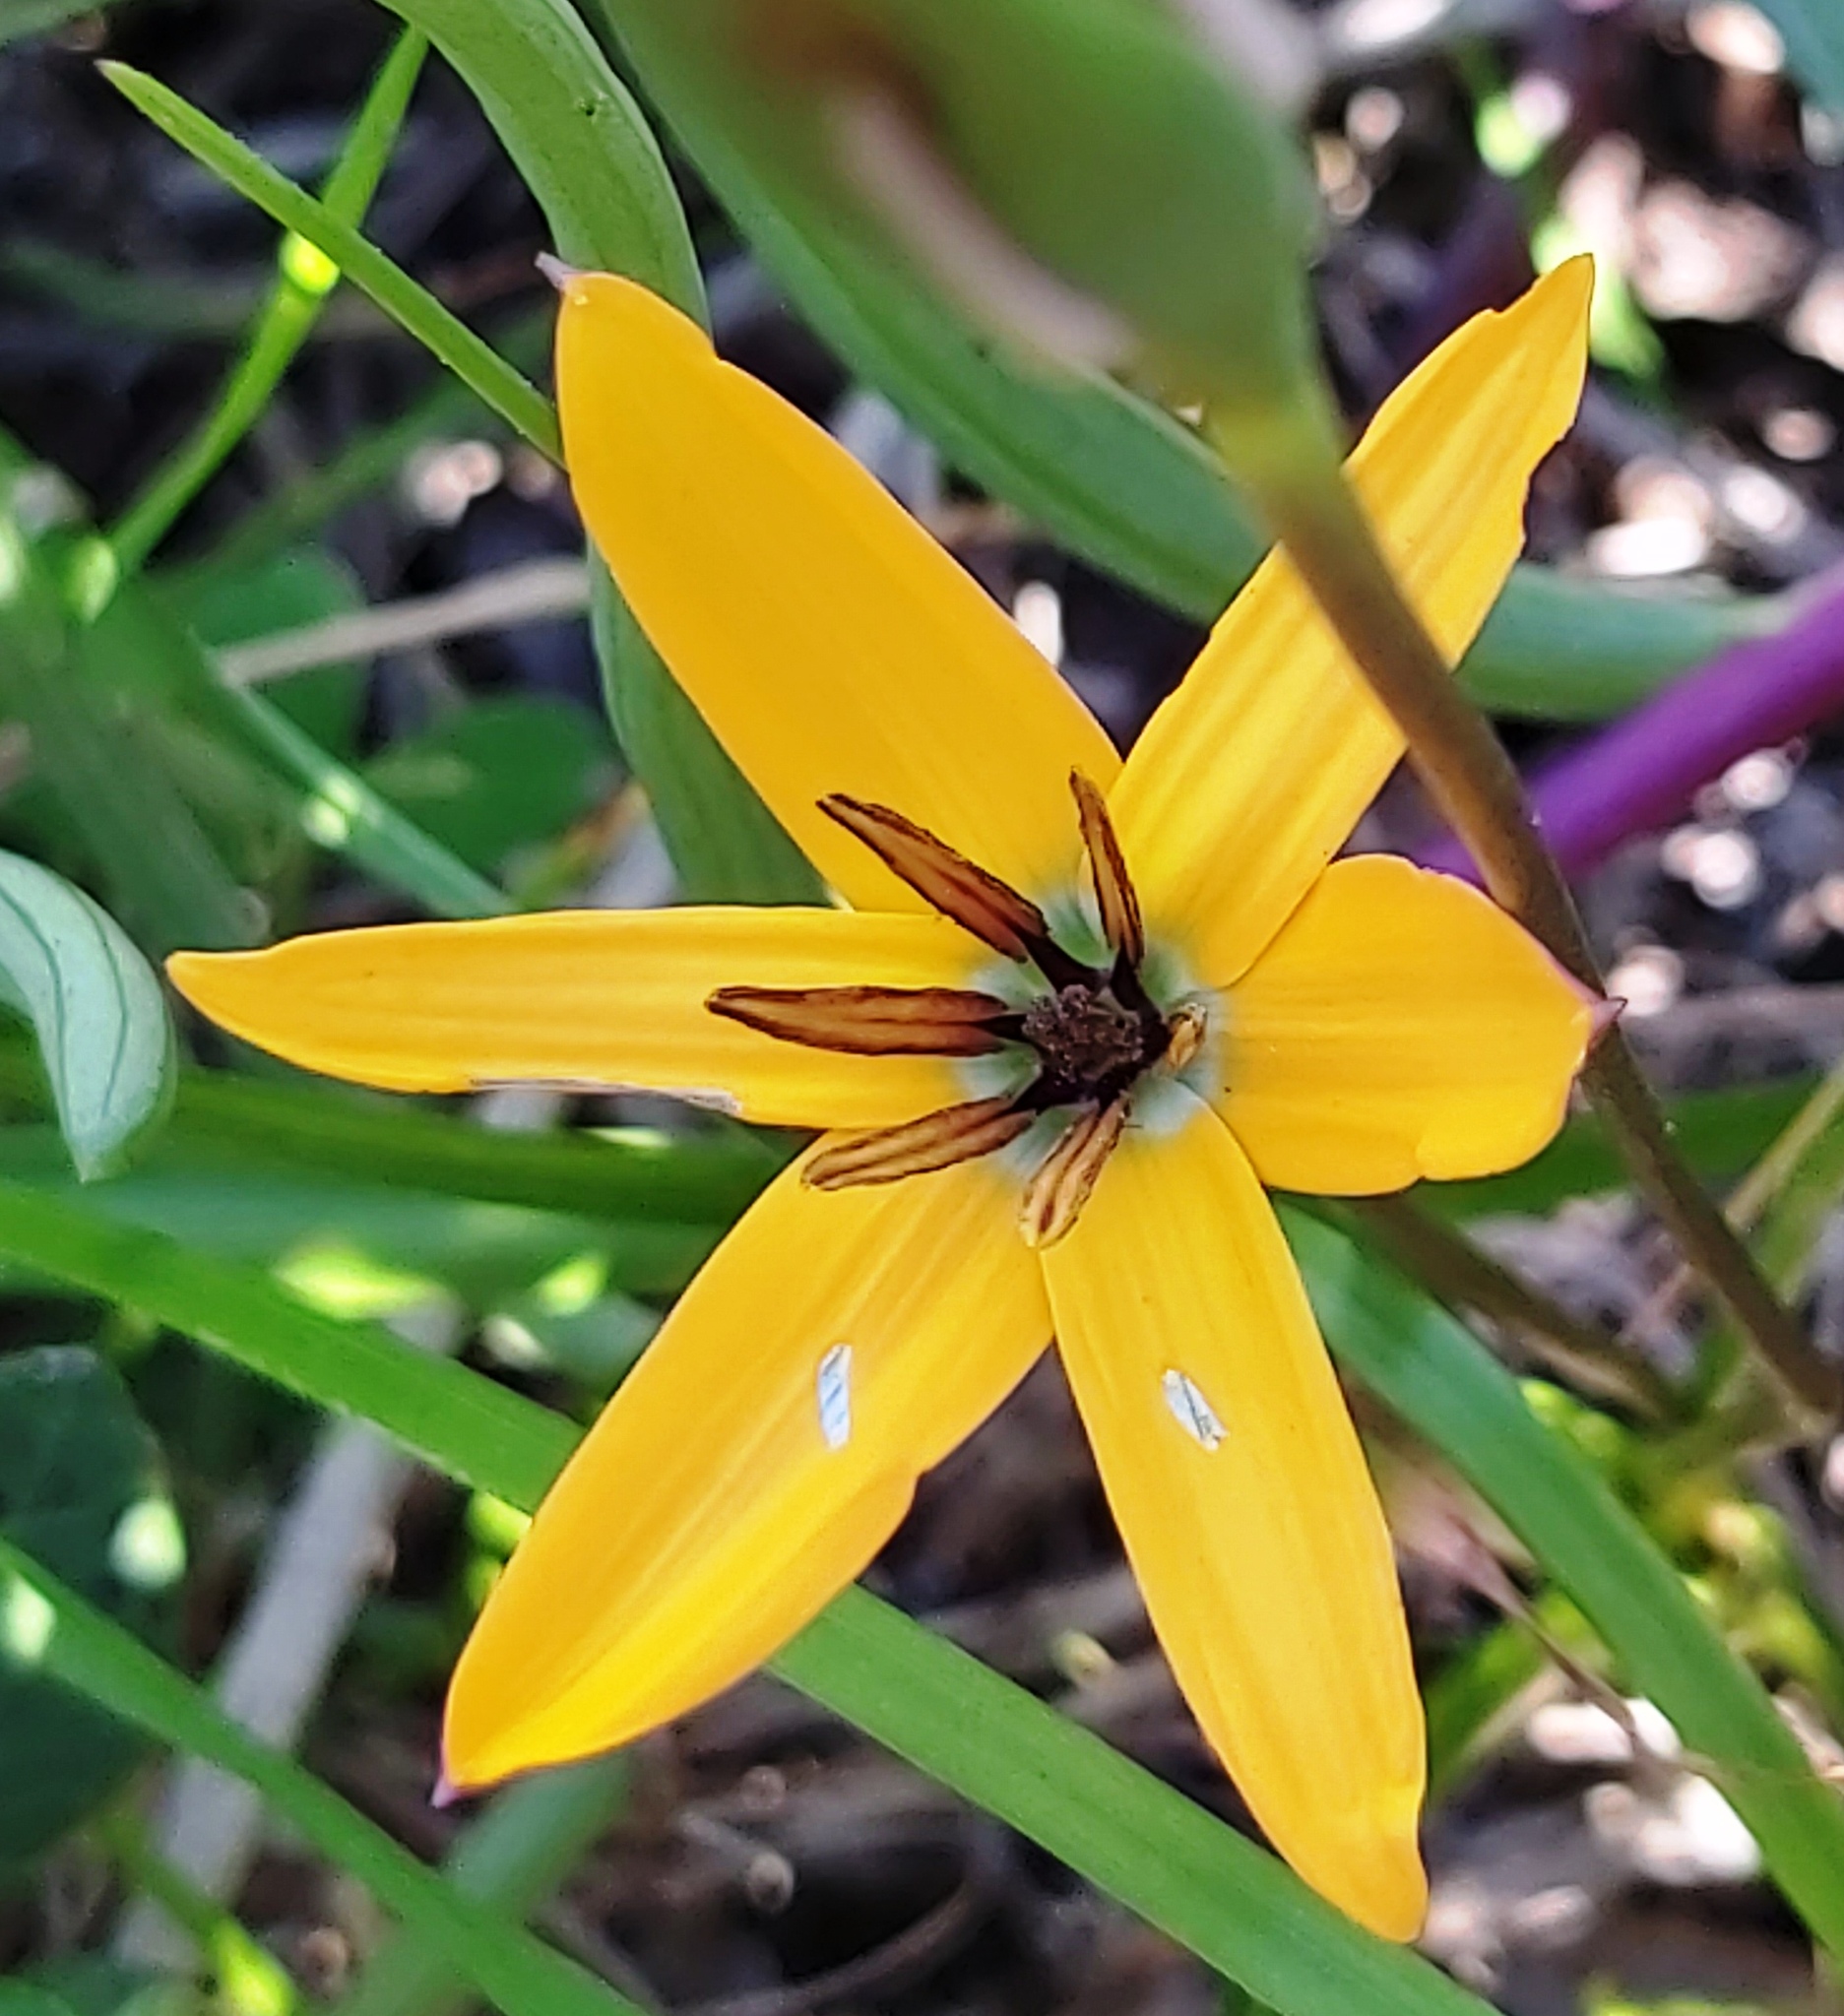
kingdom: Plantae
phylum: Tracheophyta
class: Liliopsida
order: Asparagales
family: Hypoxidaceae
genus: Pauridia
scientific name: Pauridia linearis
